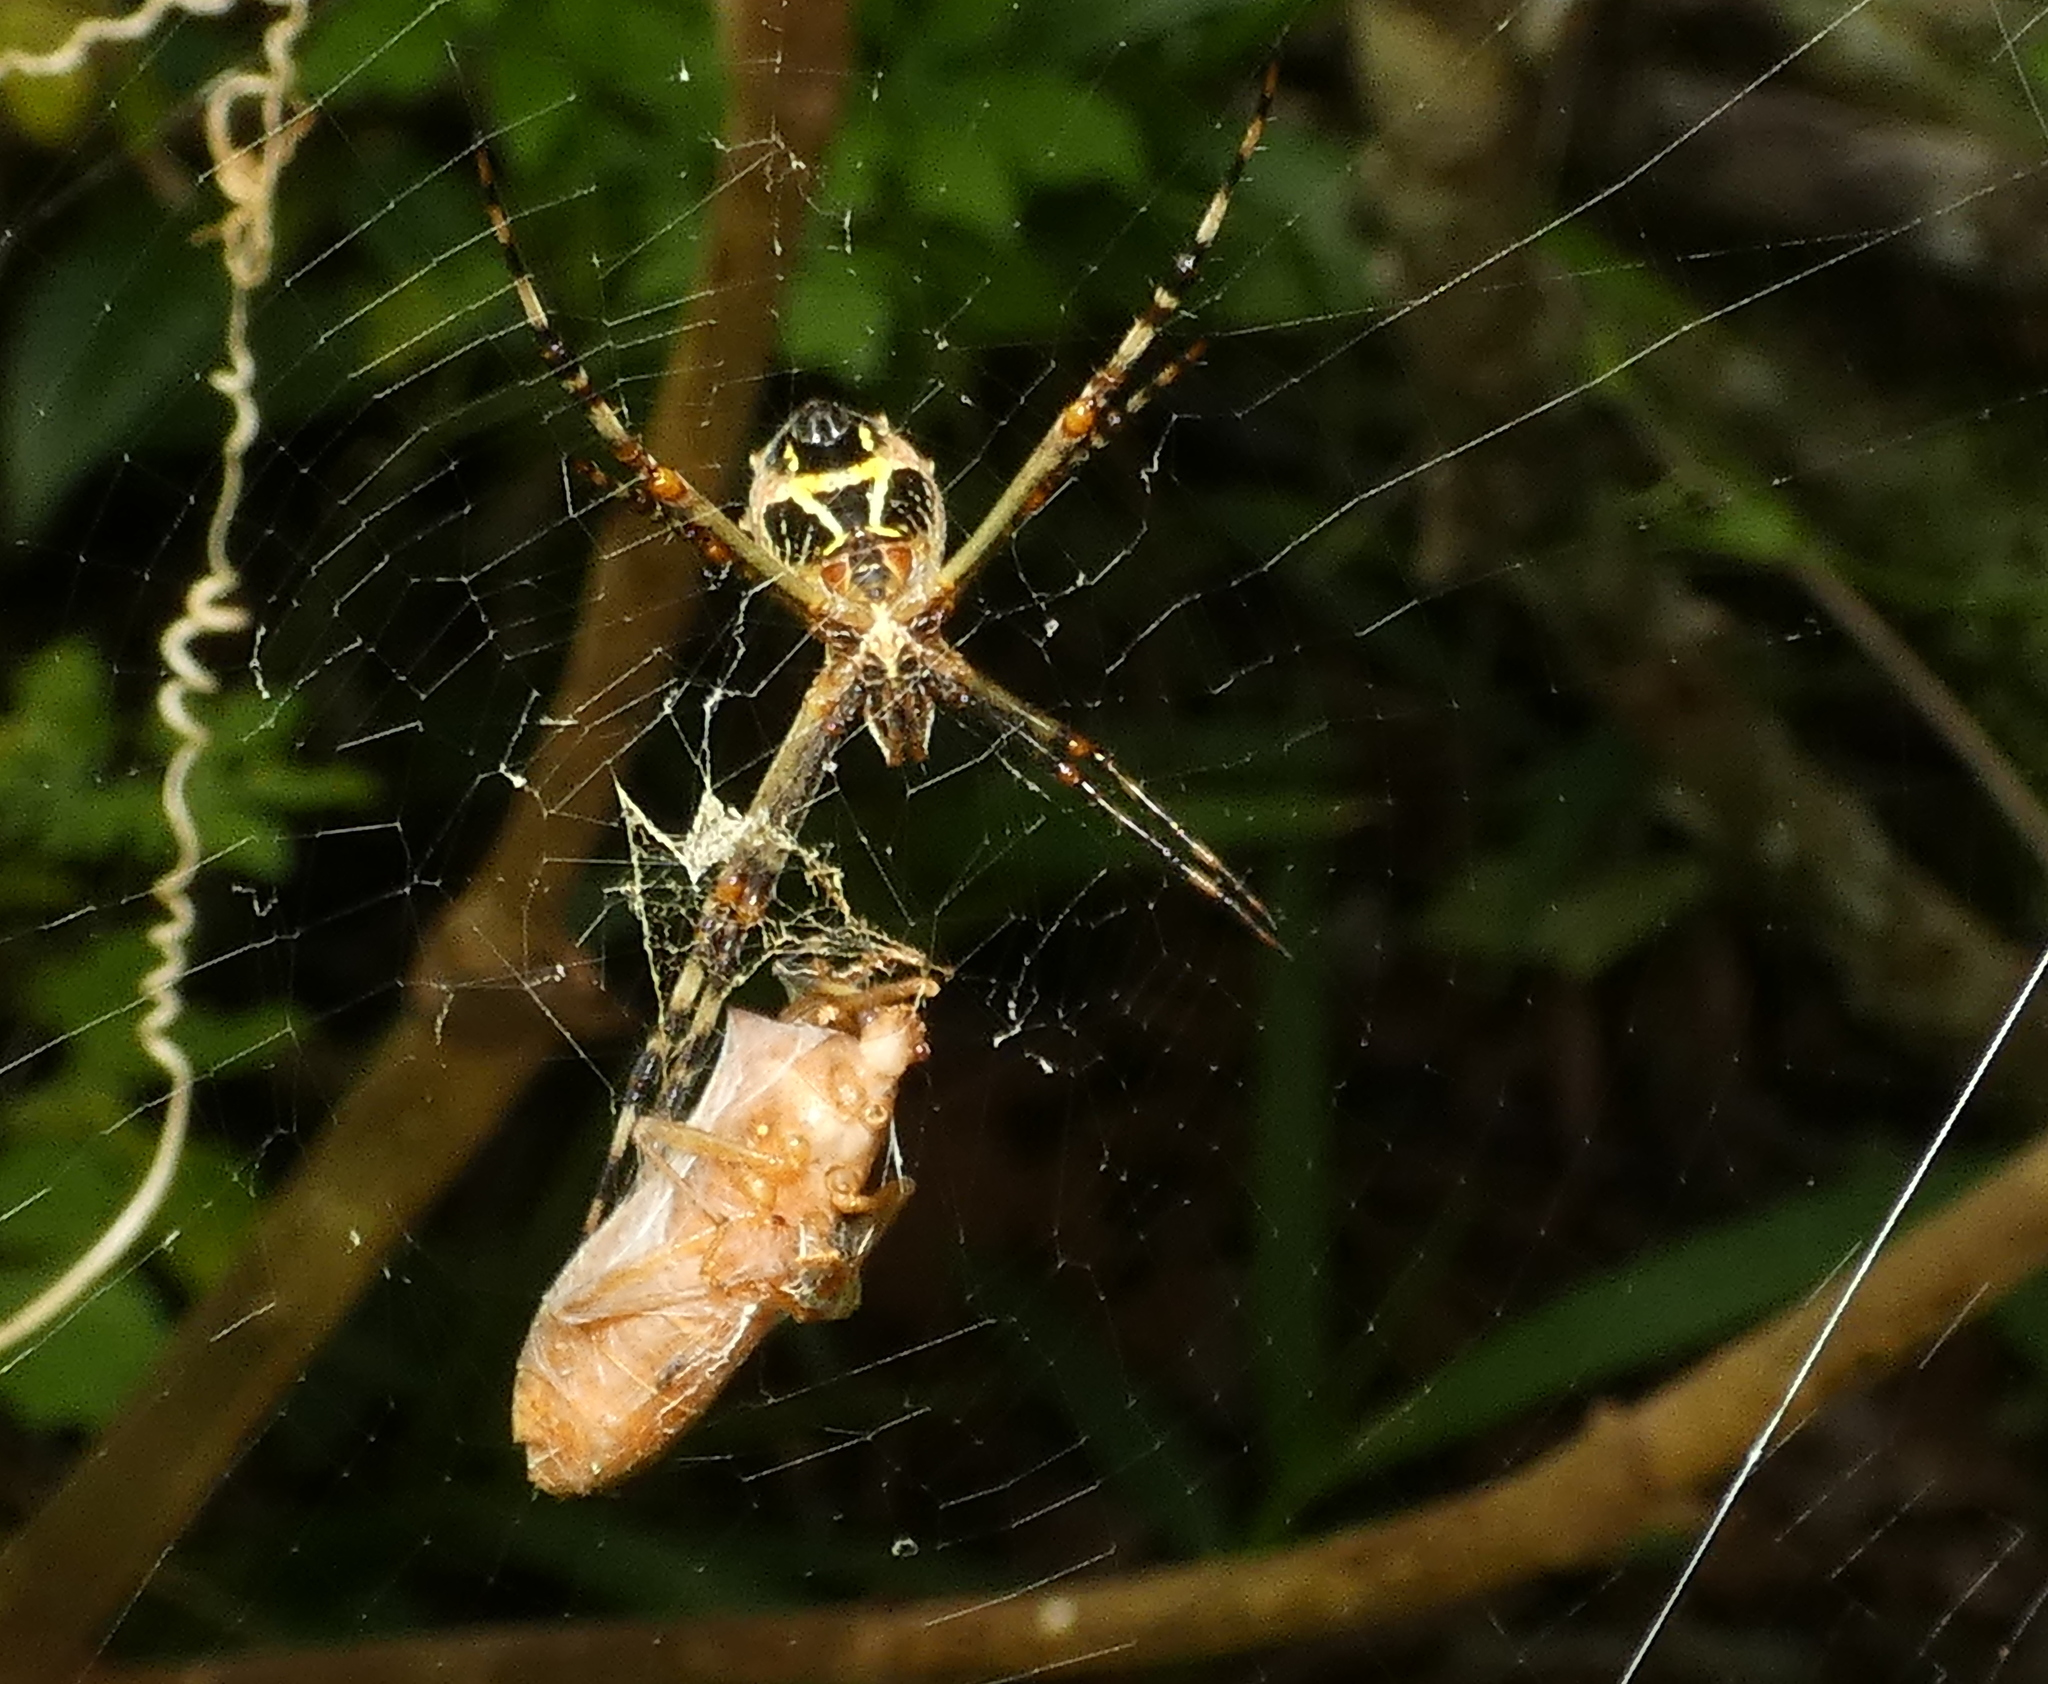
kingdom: Animalia
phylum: Arthropoda
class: Arachnida
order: Araneae
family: Araneidae
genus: Argiope
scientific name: Argiope argentata
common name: Orb weavers
